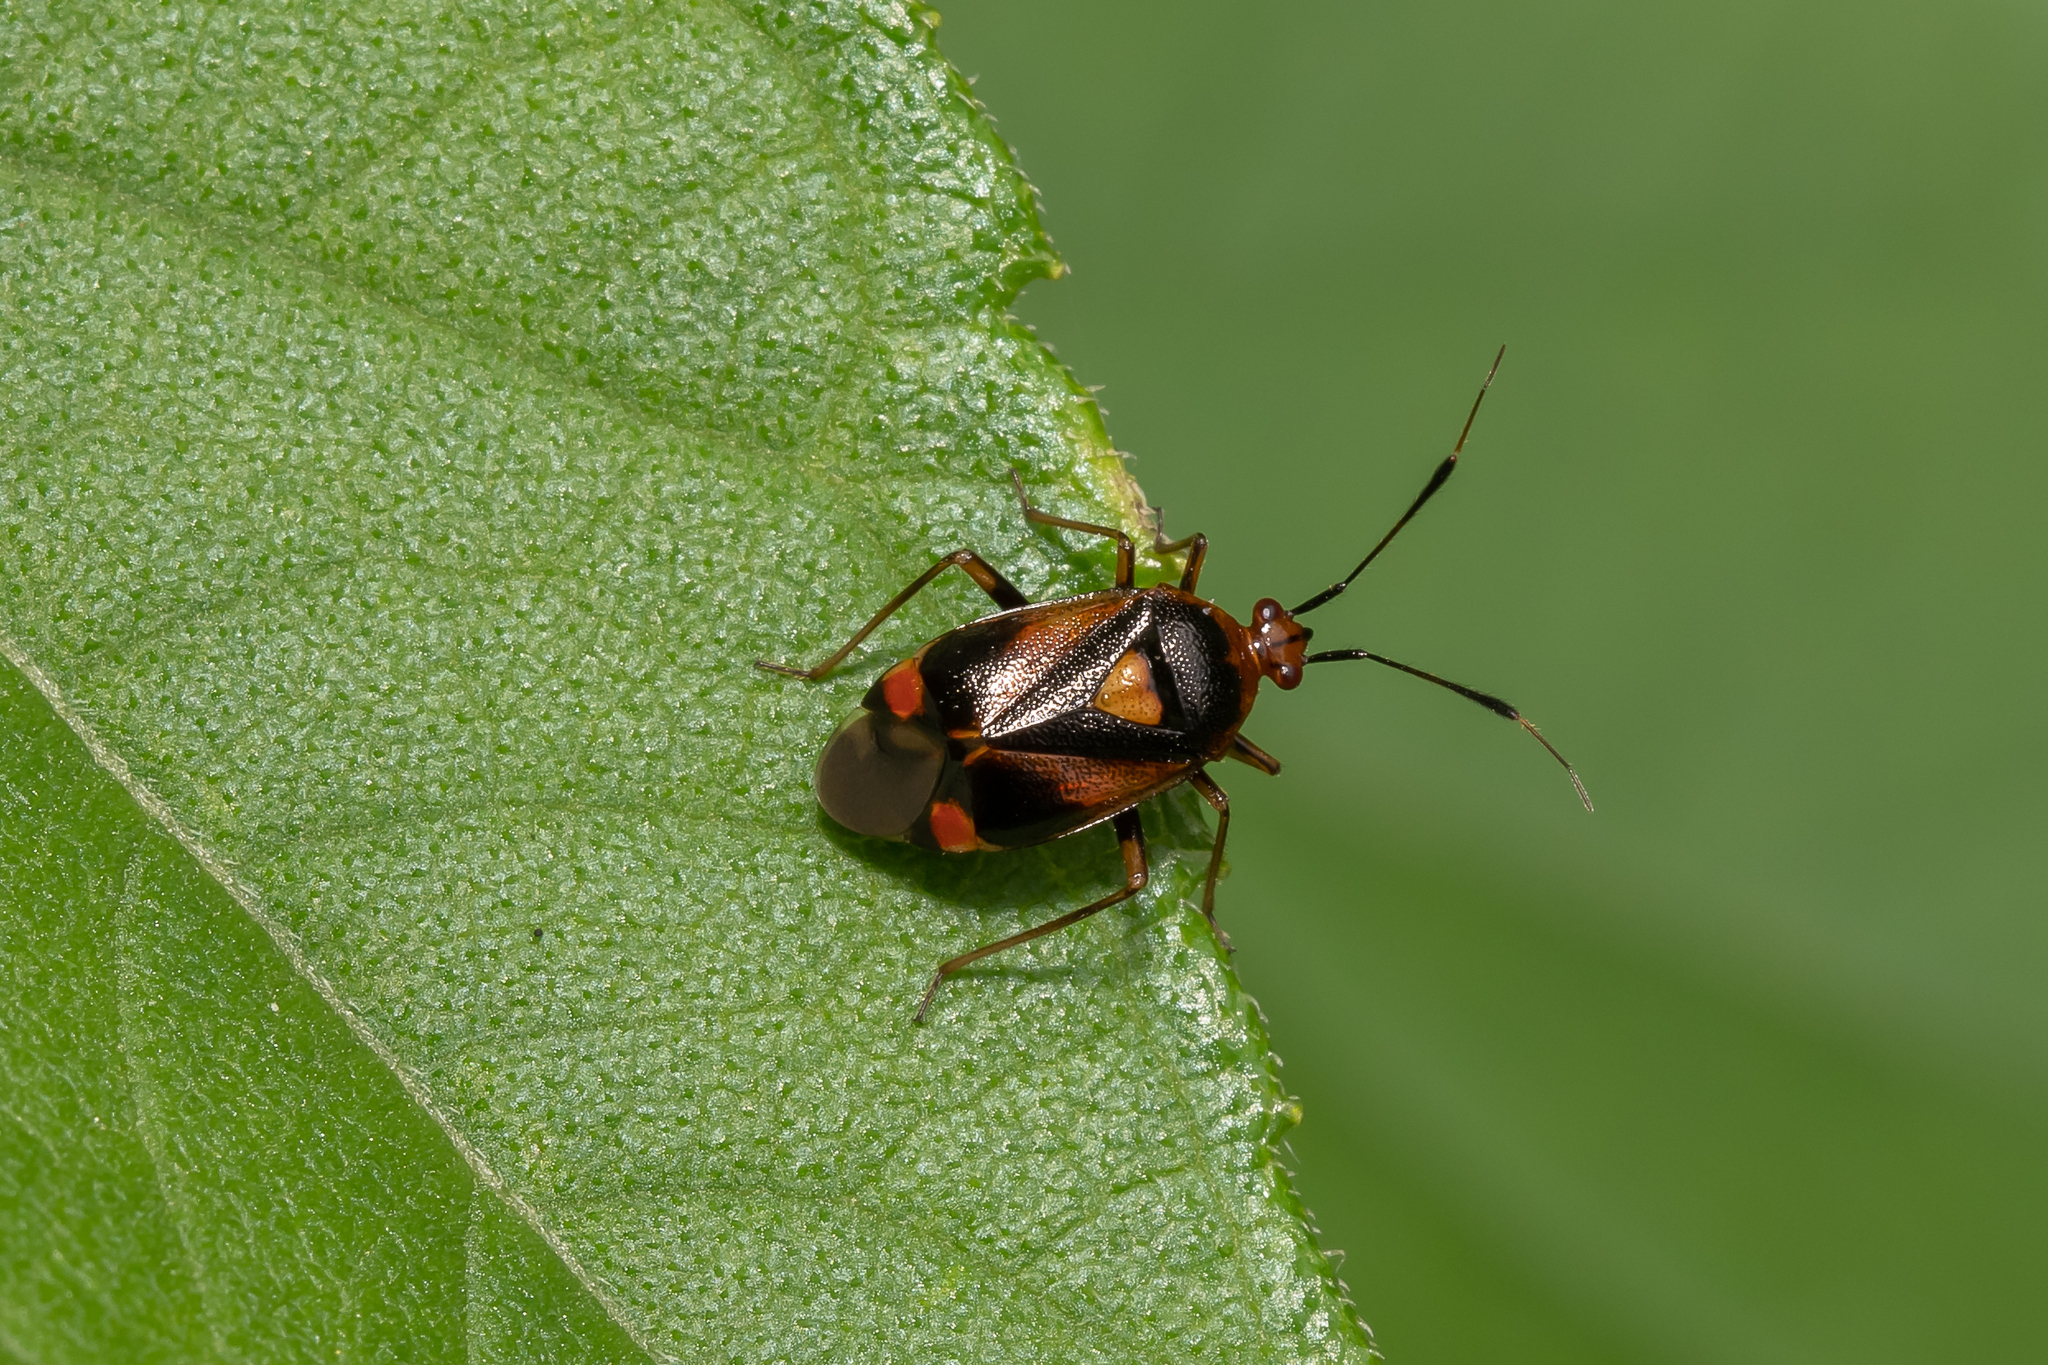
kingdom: Animalia
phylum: Arthropoda
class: Insecta
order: Hemiptera
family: Miridae
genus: Deraeocoris
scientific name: Deraeocoris ruber
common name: Plant bug
